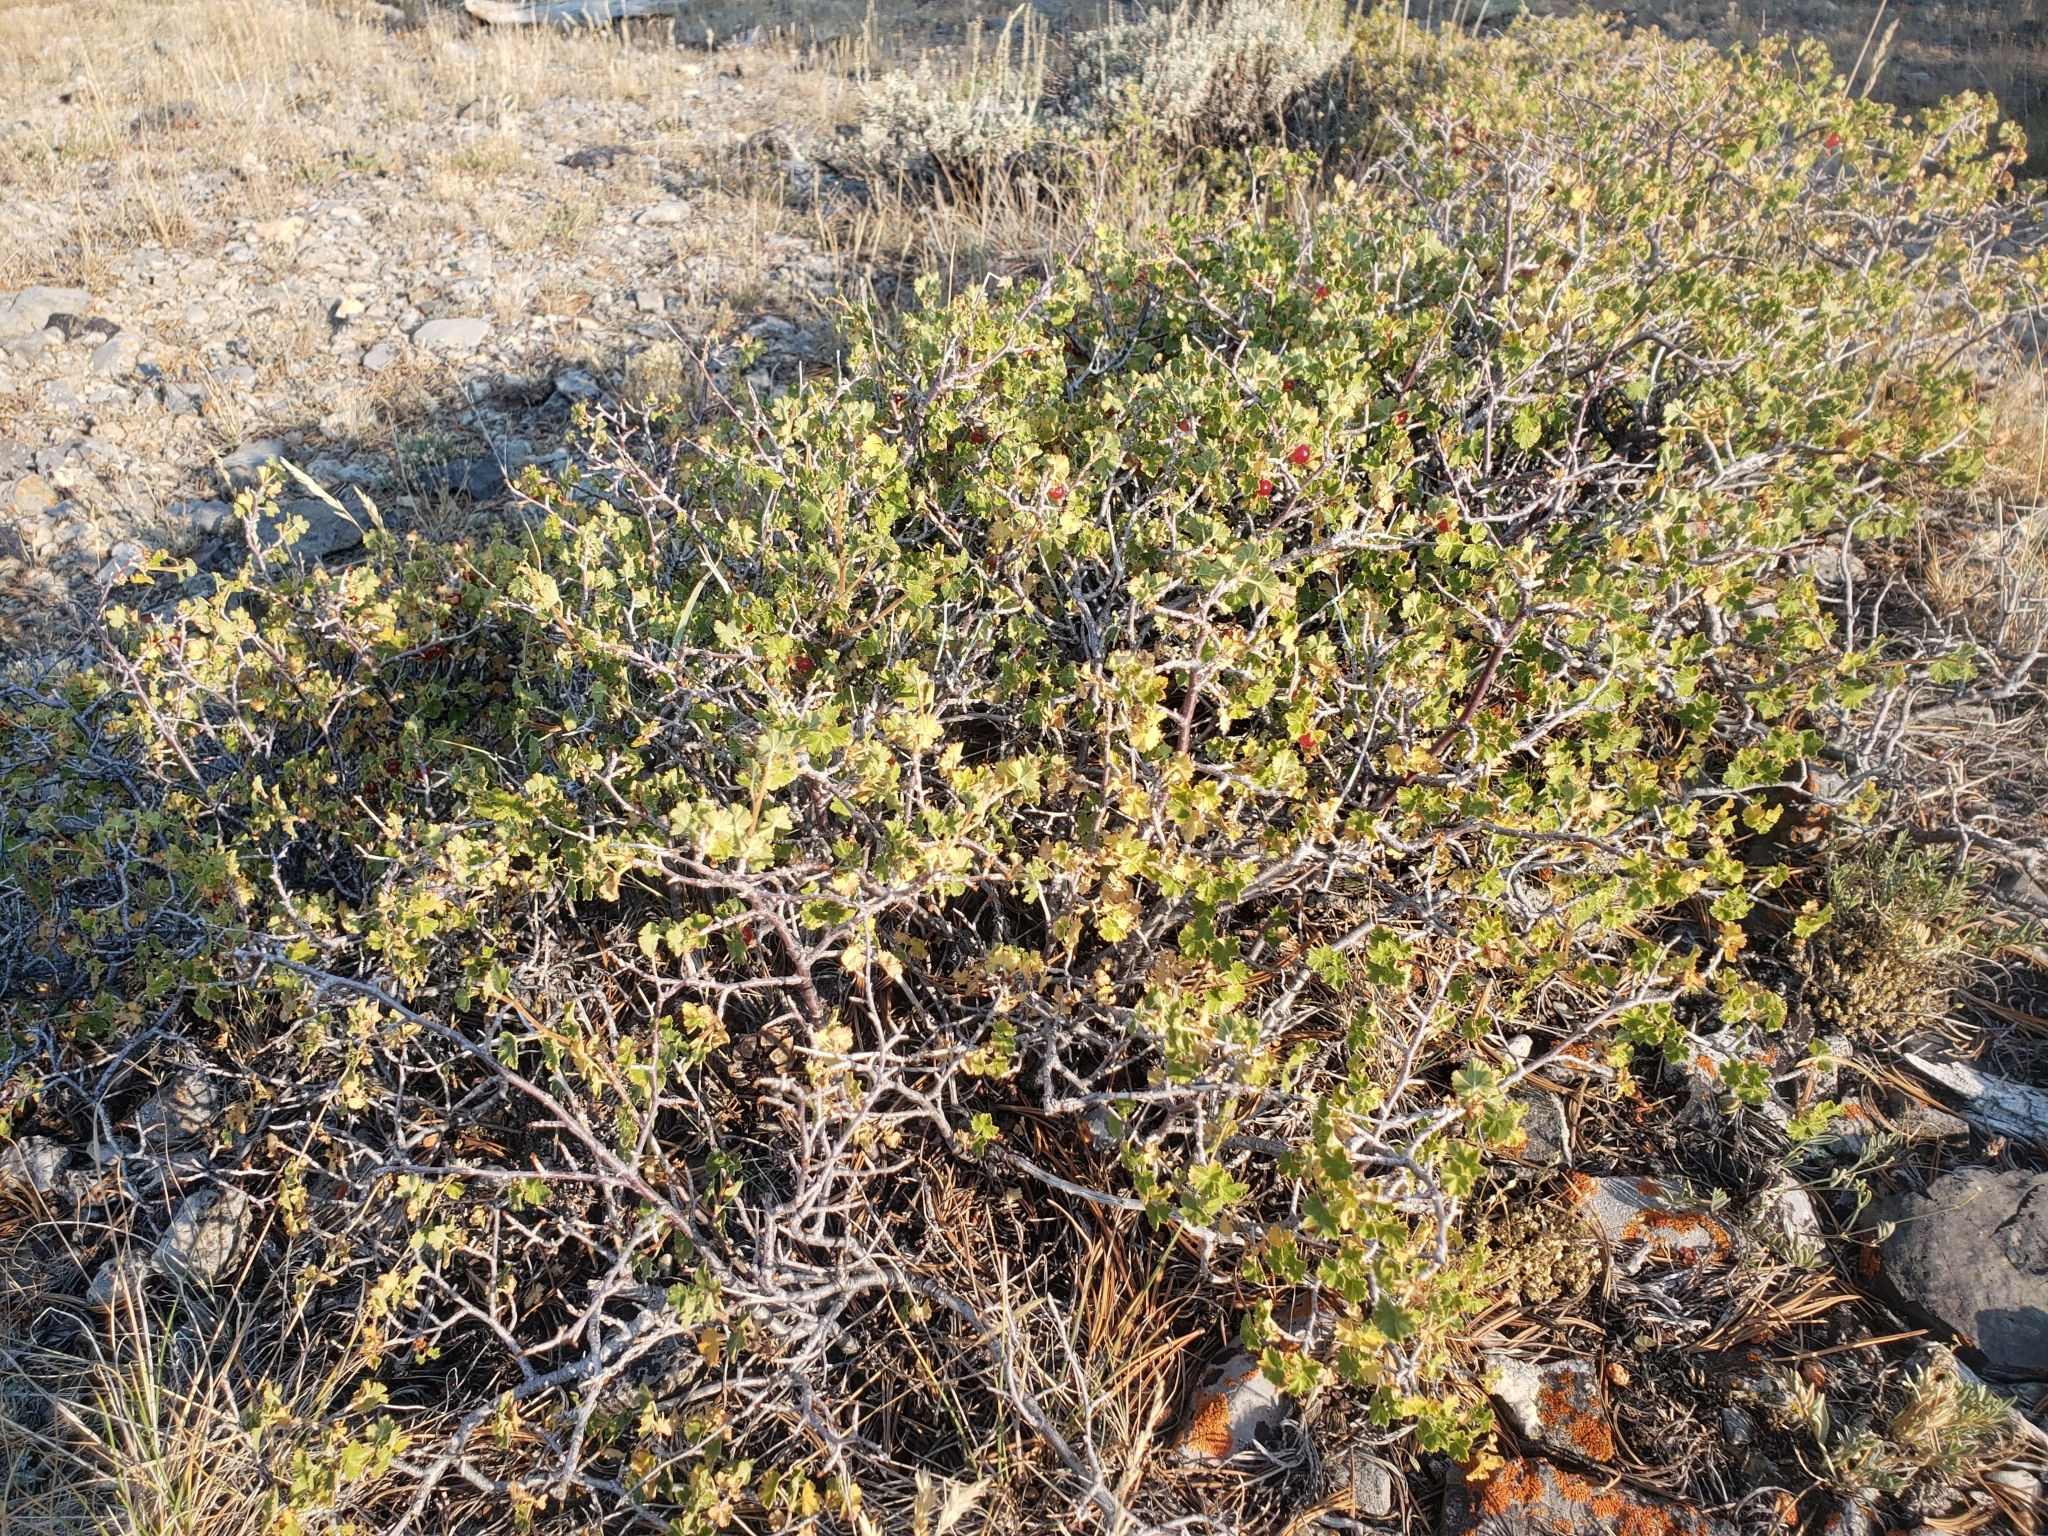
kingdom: Plantae
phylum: Tracheophyta
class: Magnoliopsida
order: Saxifragales
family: Grossulariaceae
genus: Ribes
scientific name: Ribes cereum
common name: Wax currant
